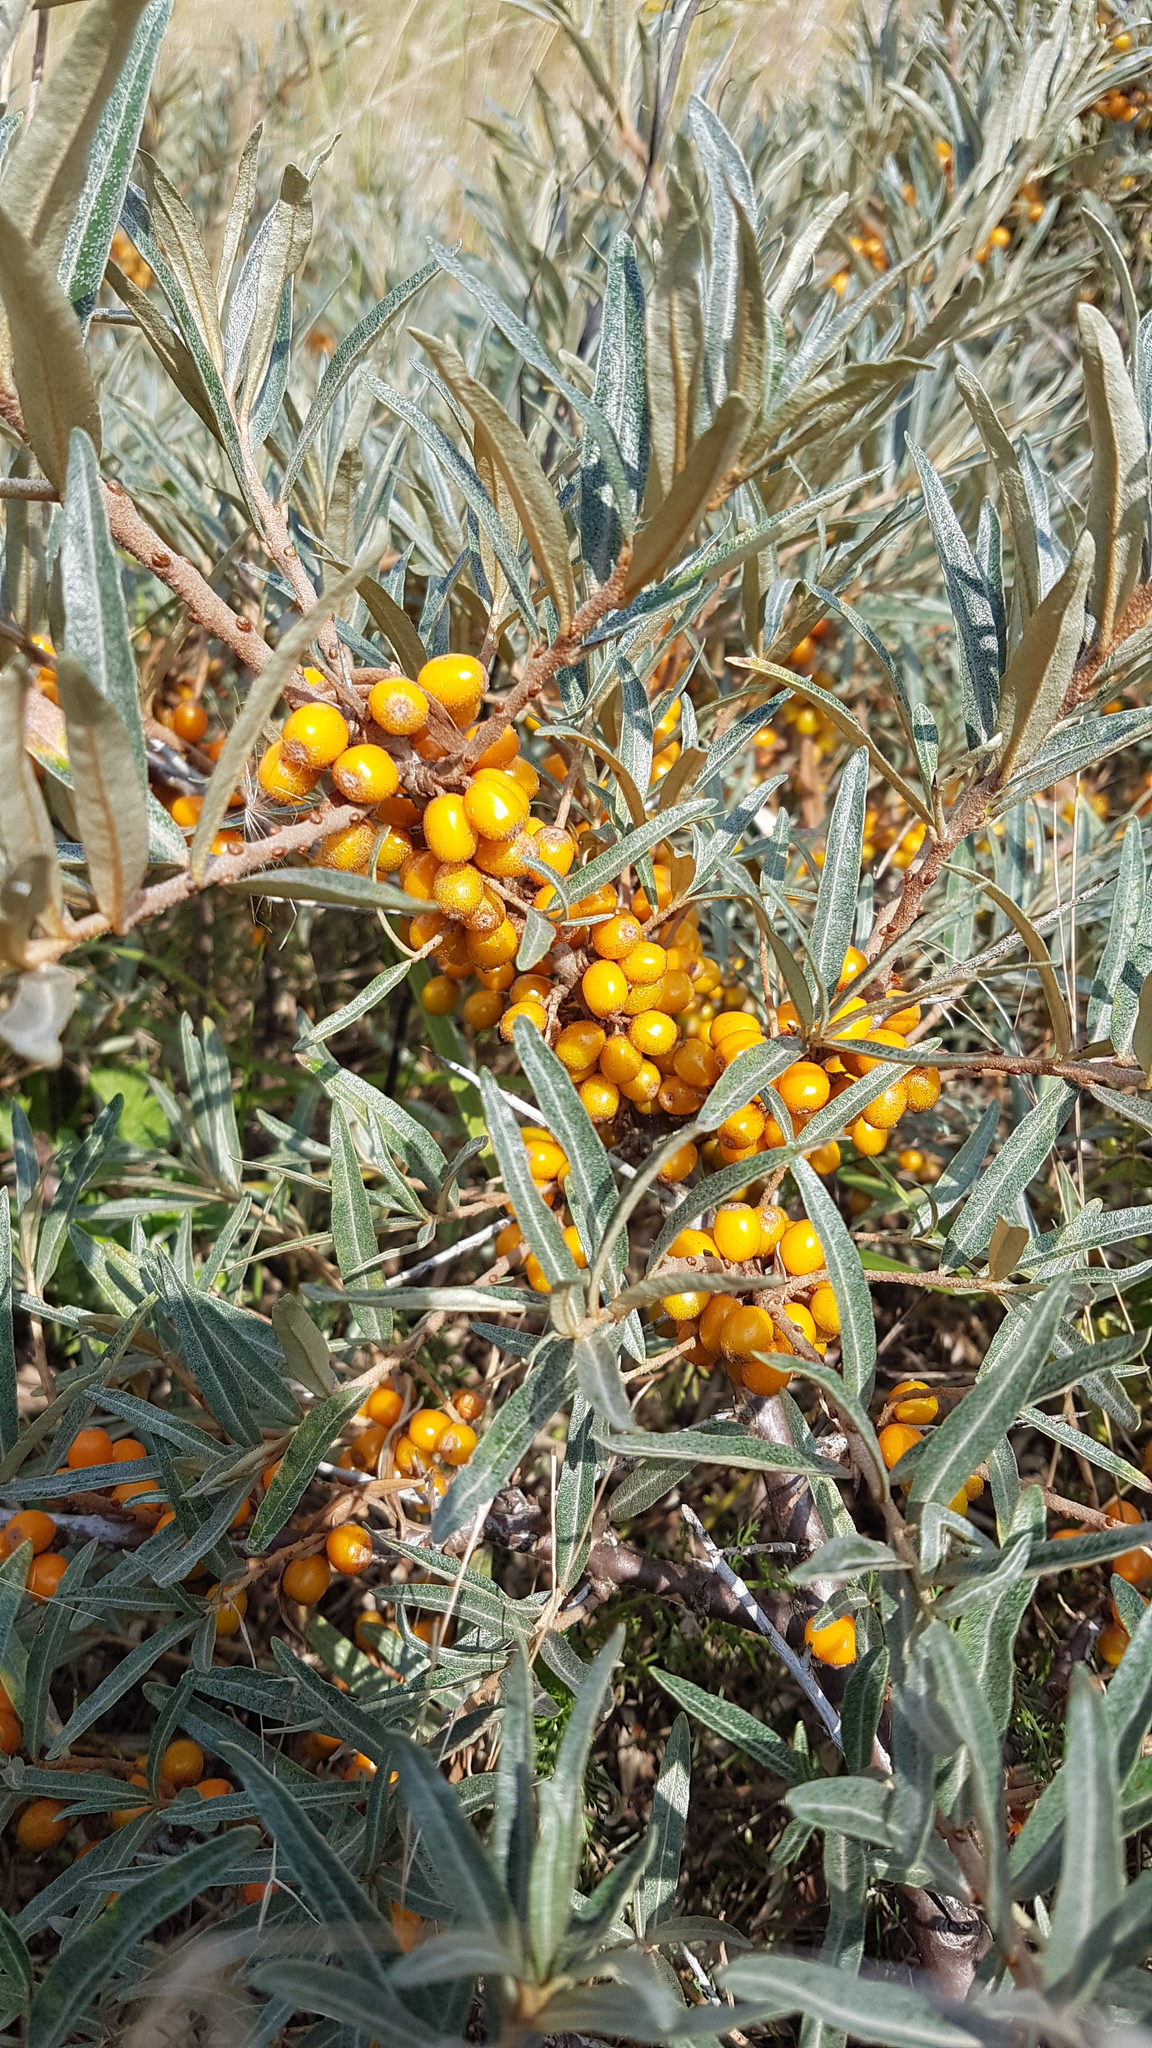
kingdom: Plantae
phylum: Tracheophyta
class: Magnoliopsida
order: Rosales
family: Elaeagnaceae
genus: Hippophae
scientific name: Hippophae rhamnoides
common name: Sea-buckthorn
